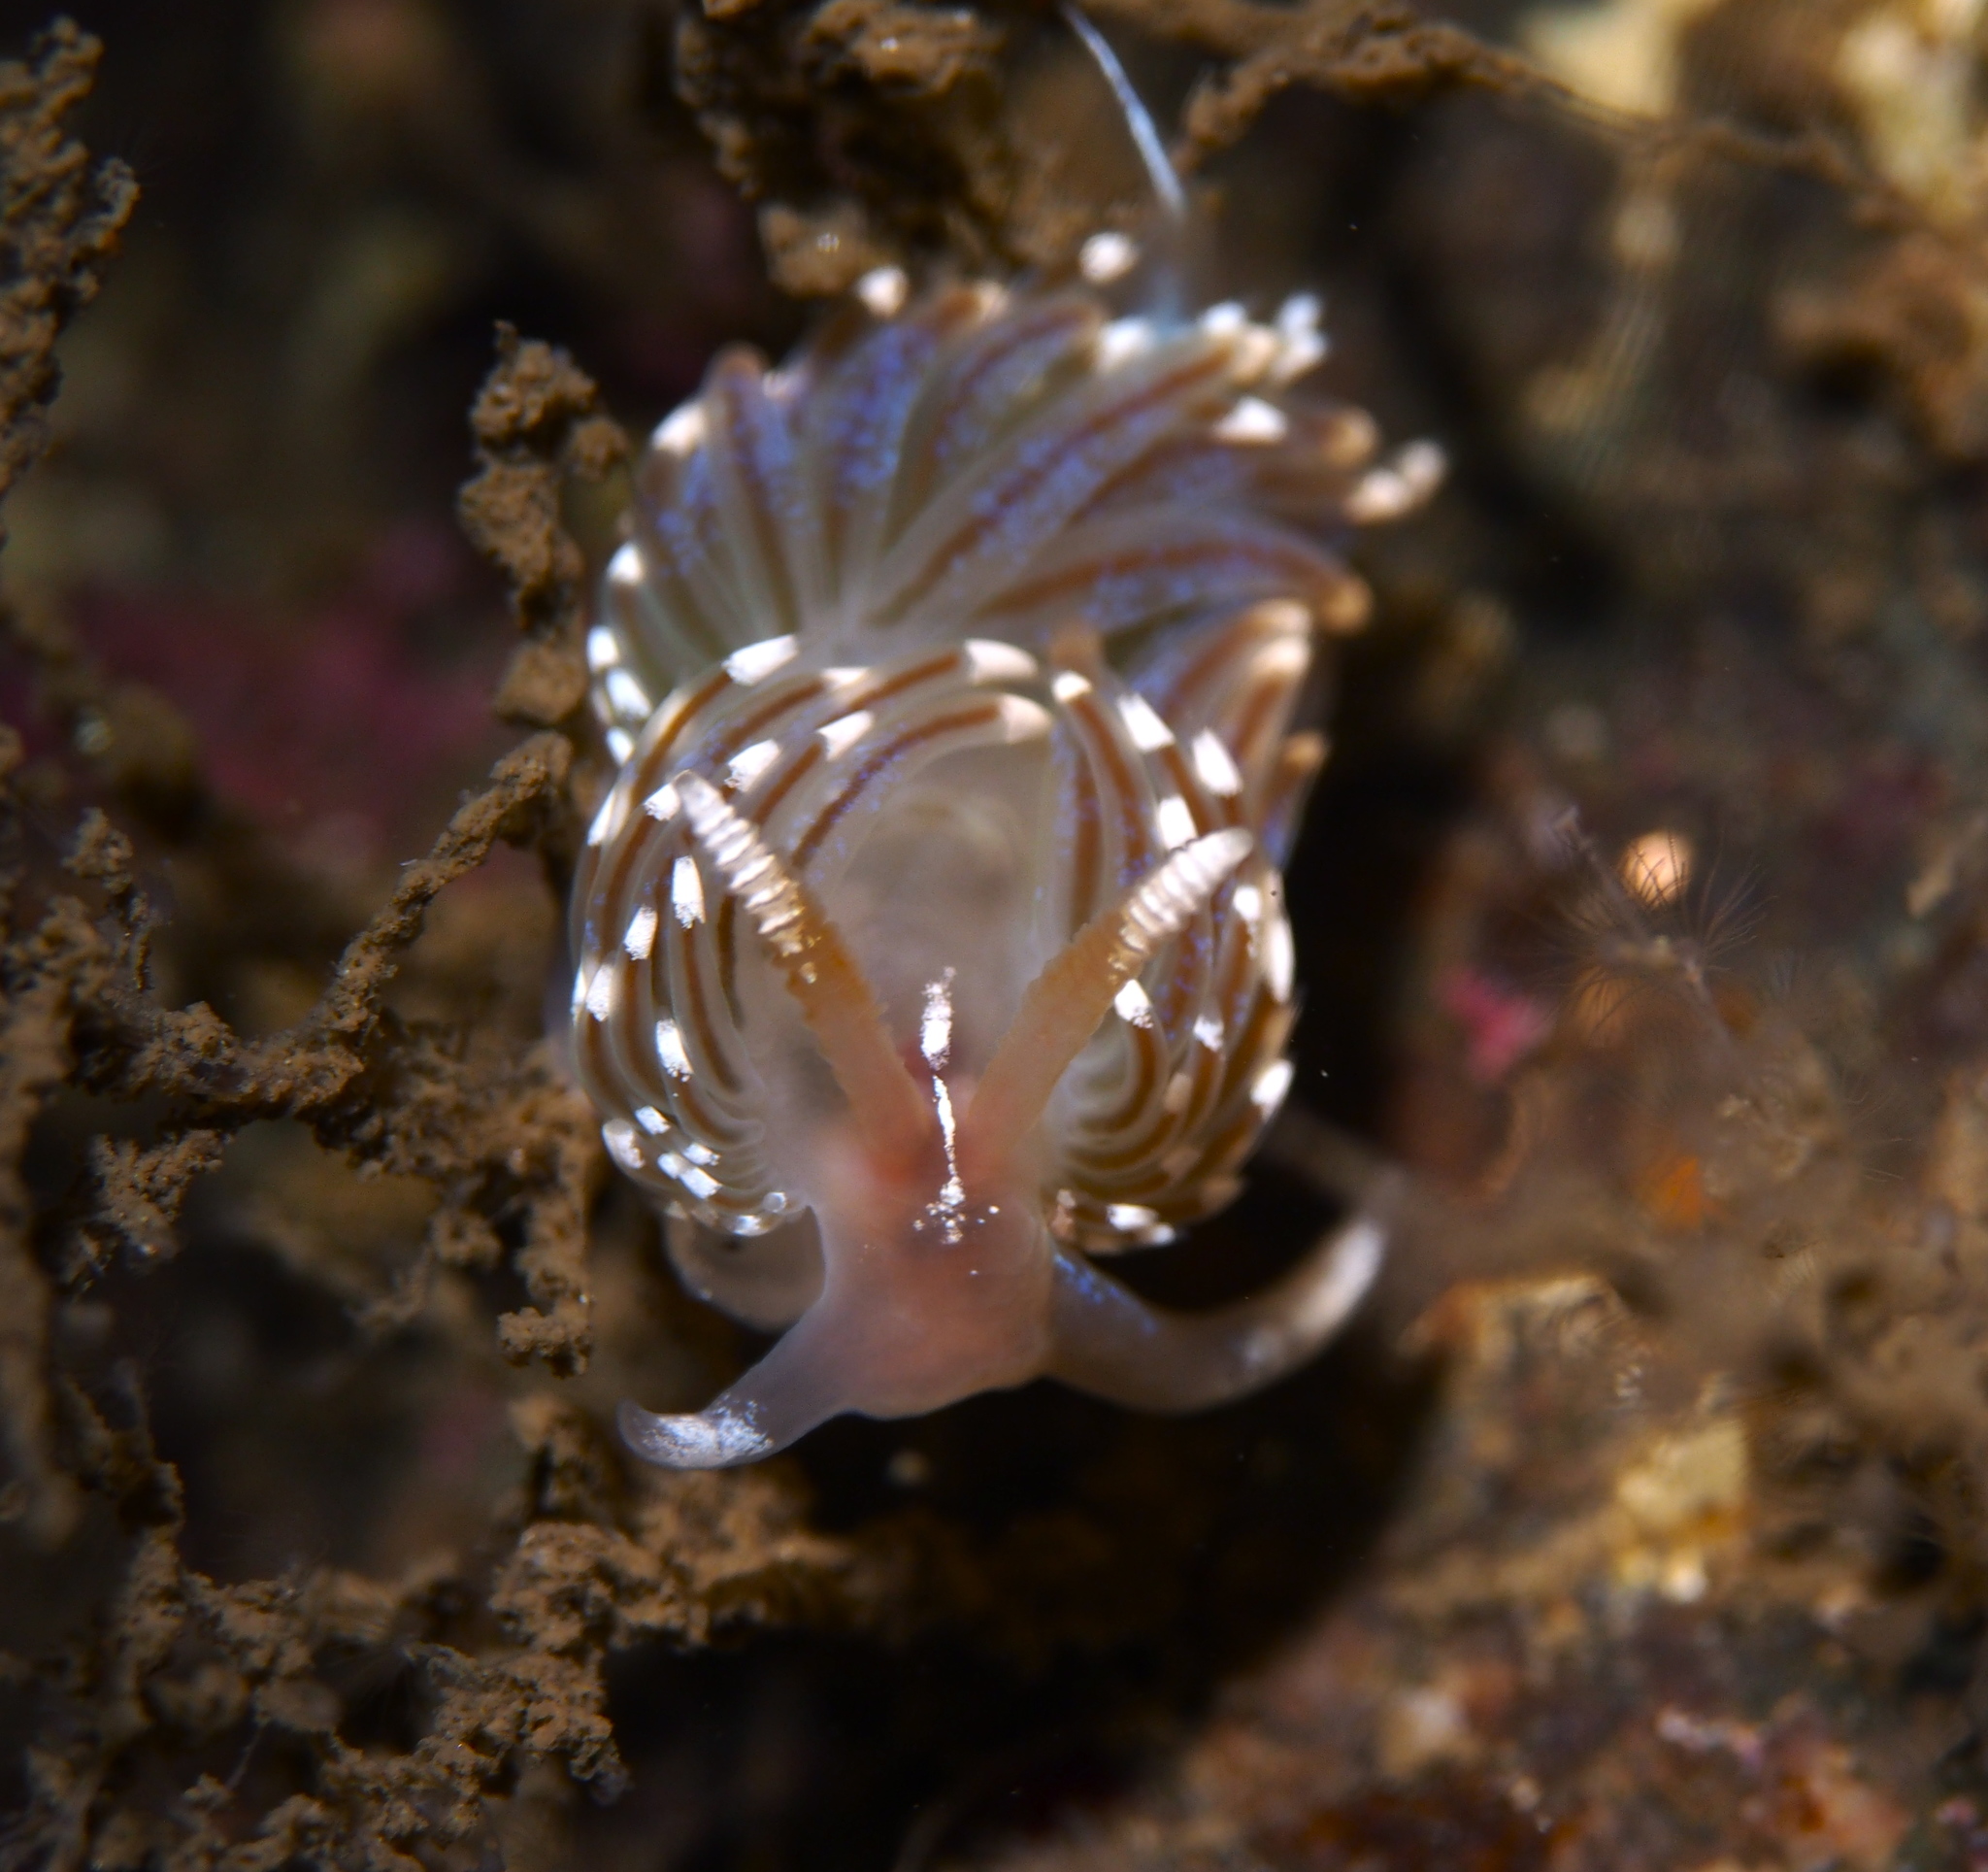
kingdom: Animalia
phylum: Mollusca
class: Gastropoda
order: Nudibranchia
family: Facelinidae
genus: Facelina
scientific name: Facelina auriculata
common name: Slender facelina
